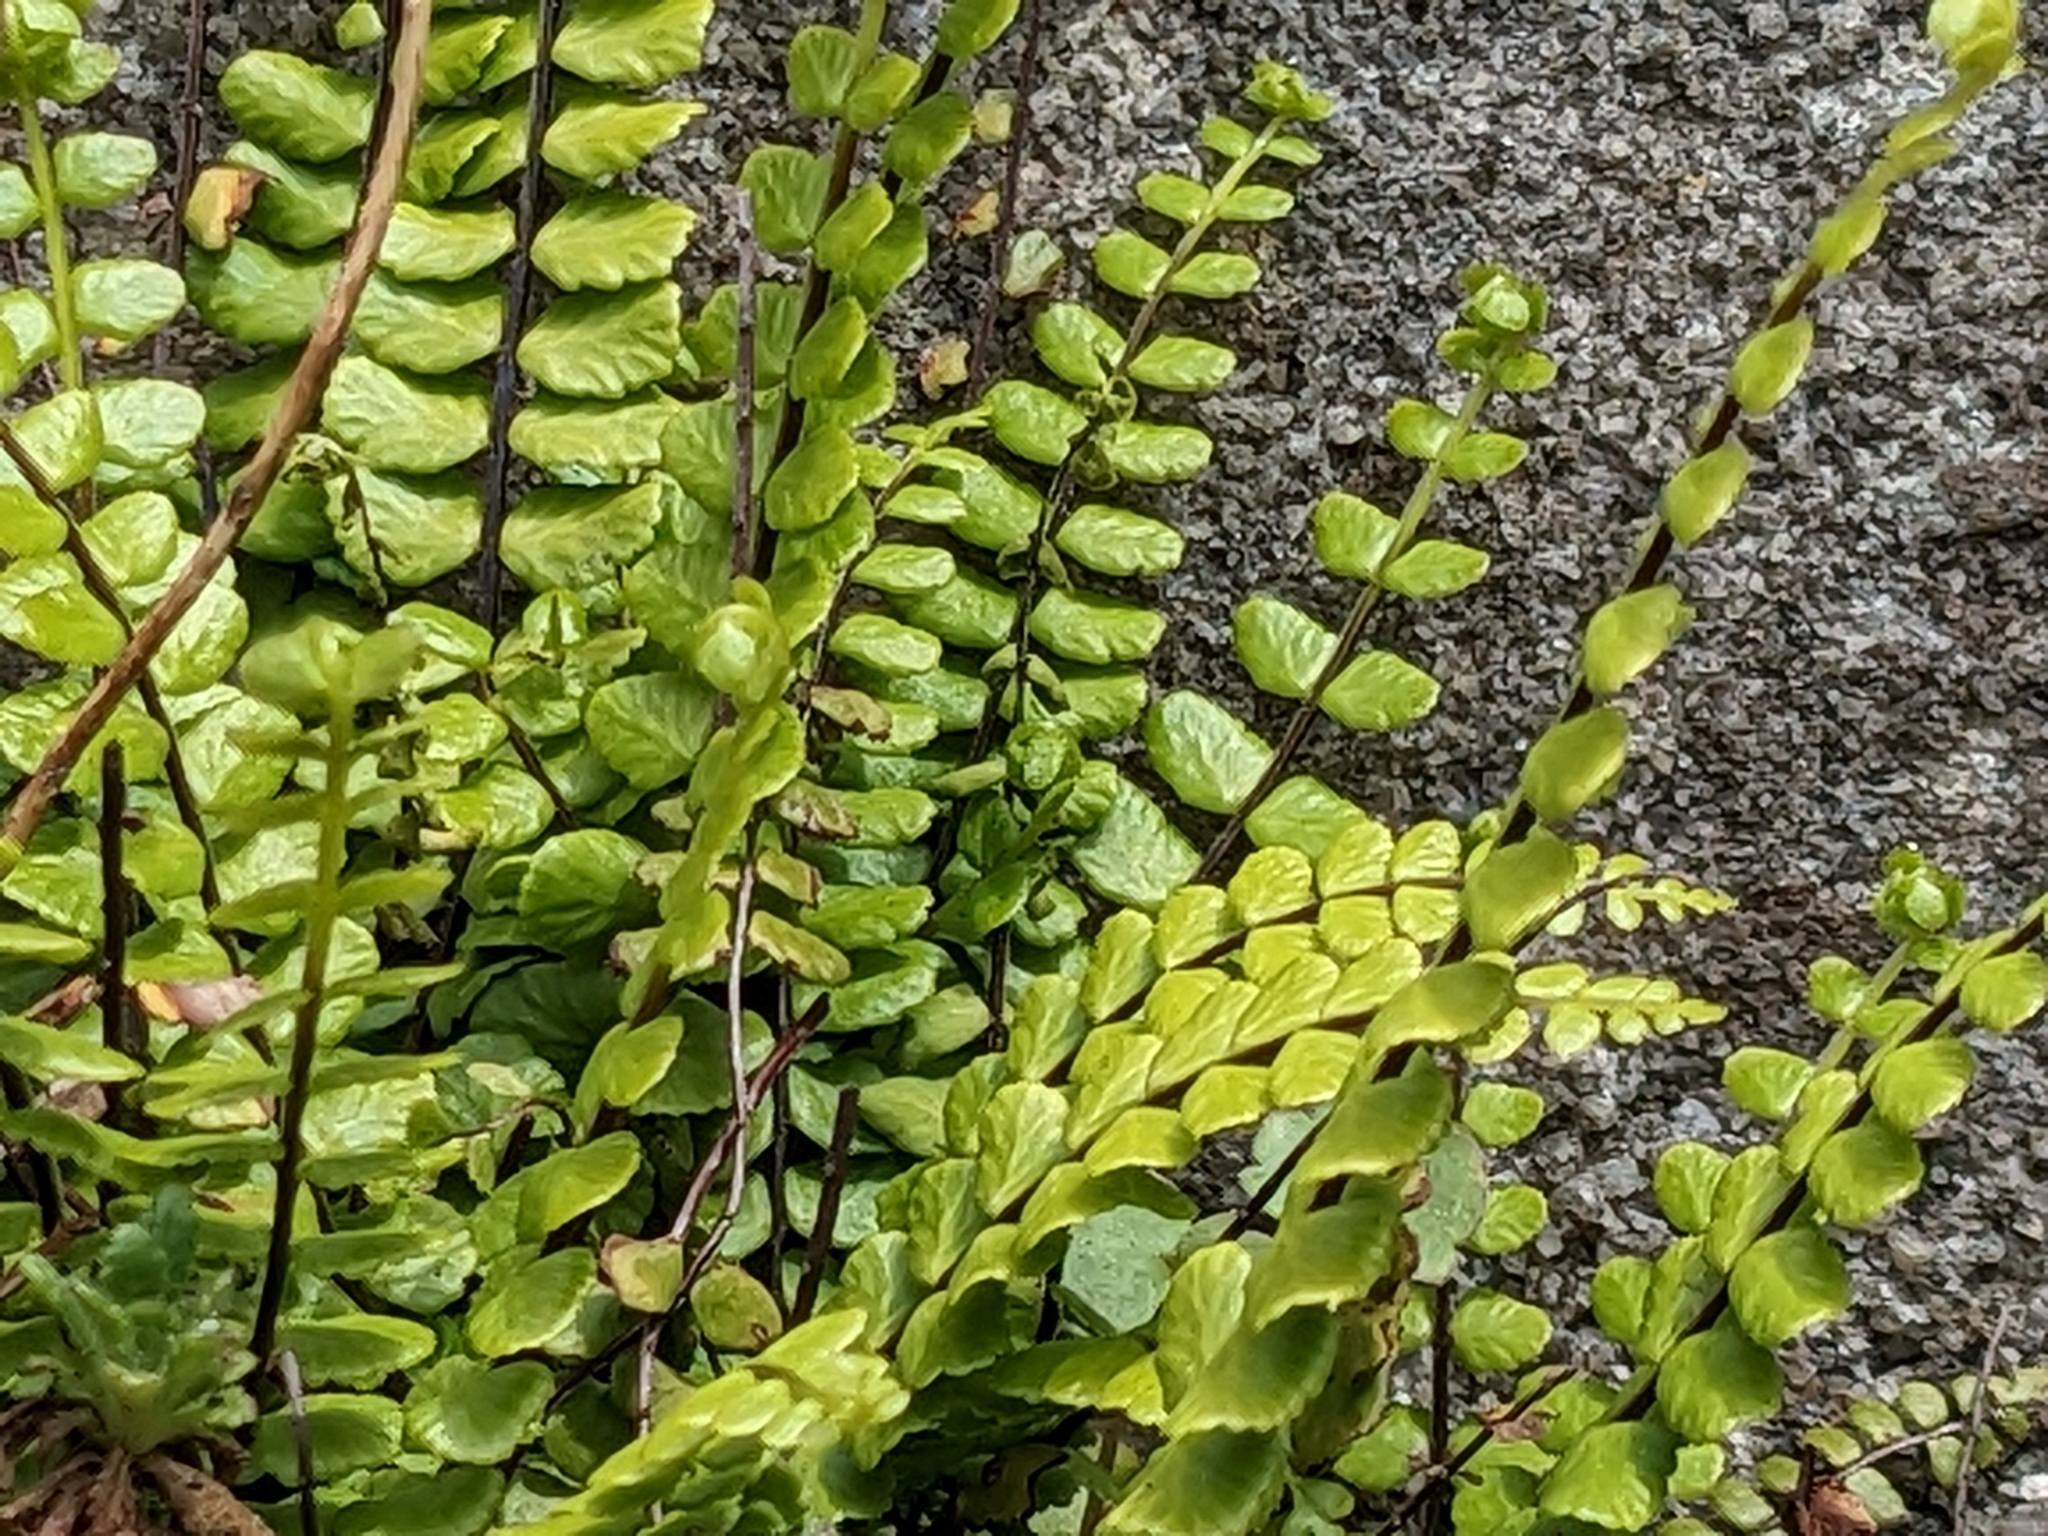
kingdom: Plantae
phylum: Tracheophyta
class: Polypodiopsida
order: Polypodiales
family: Aspleniaceae
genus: Asplenium
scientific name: Asplenium trichomanes
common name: Maidenhair spleenwort
